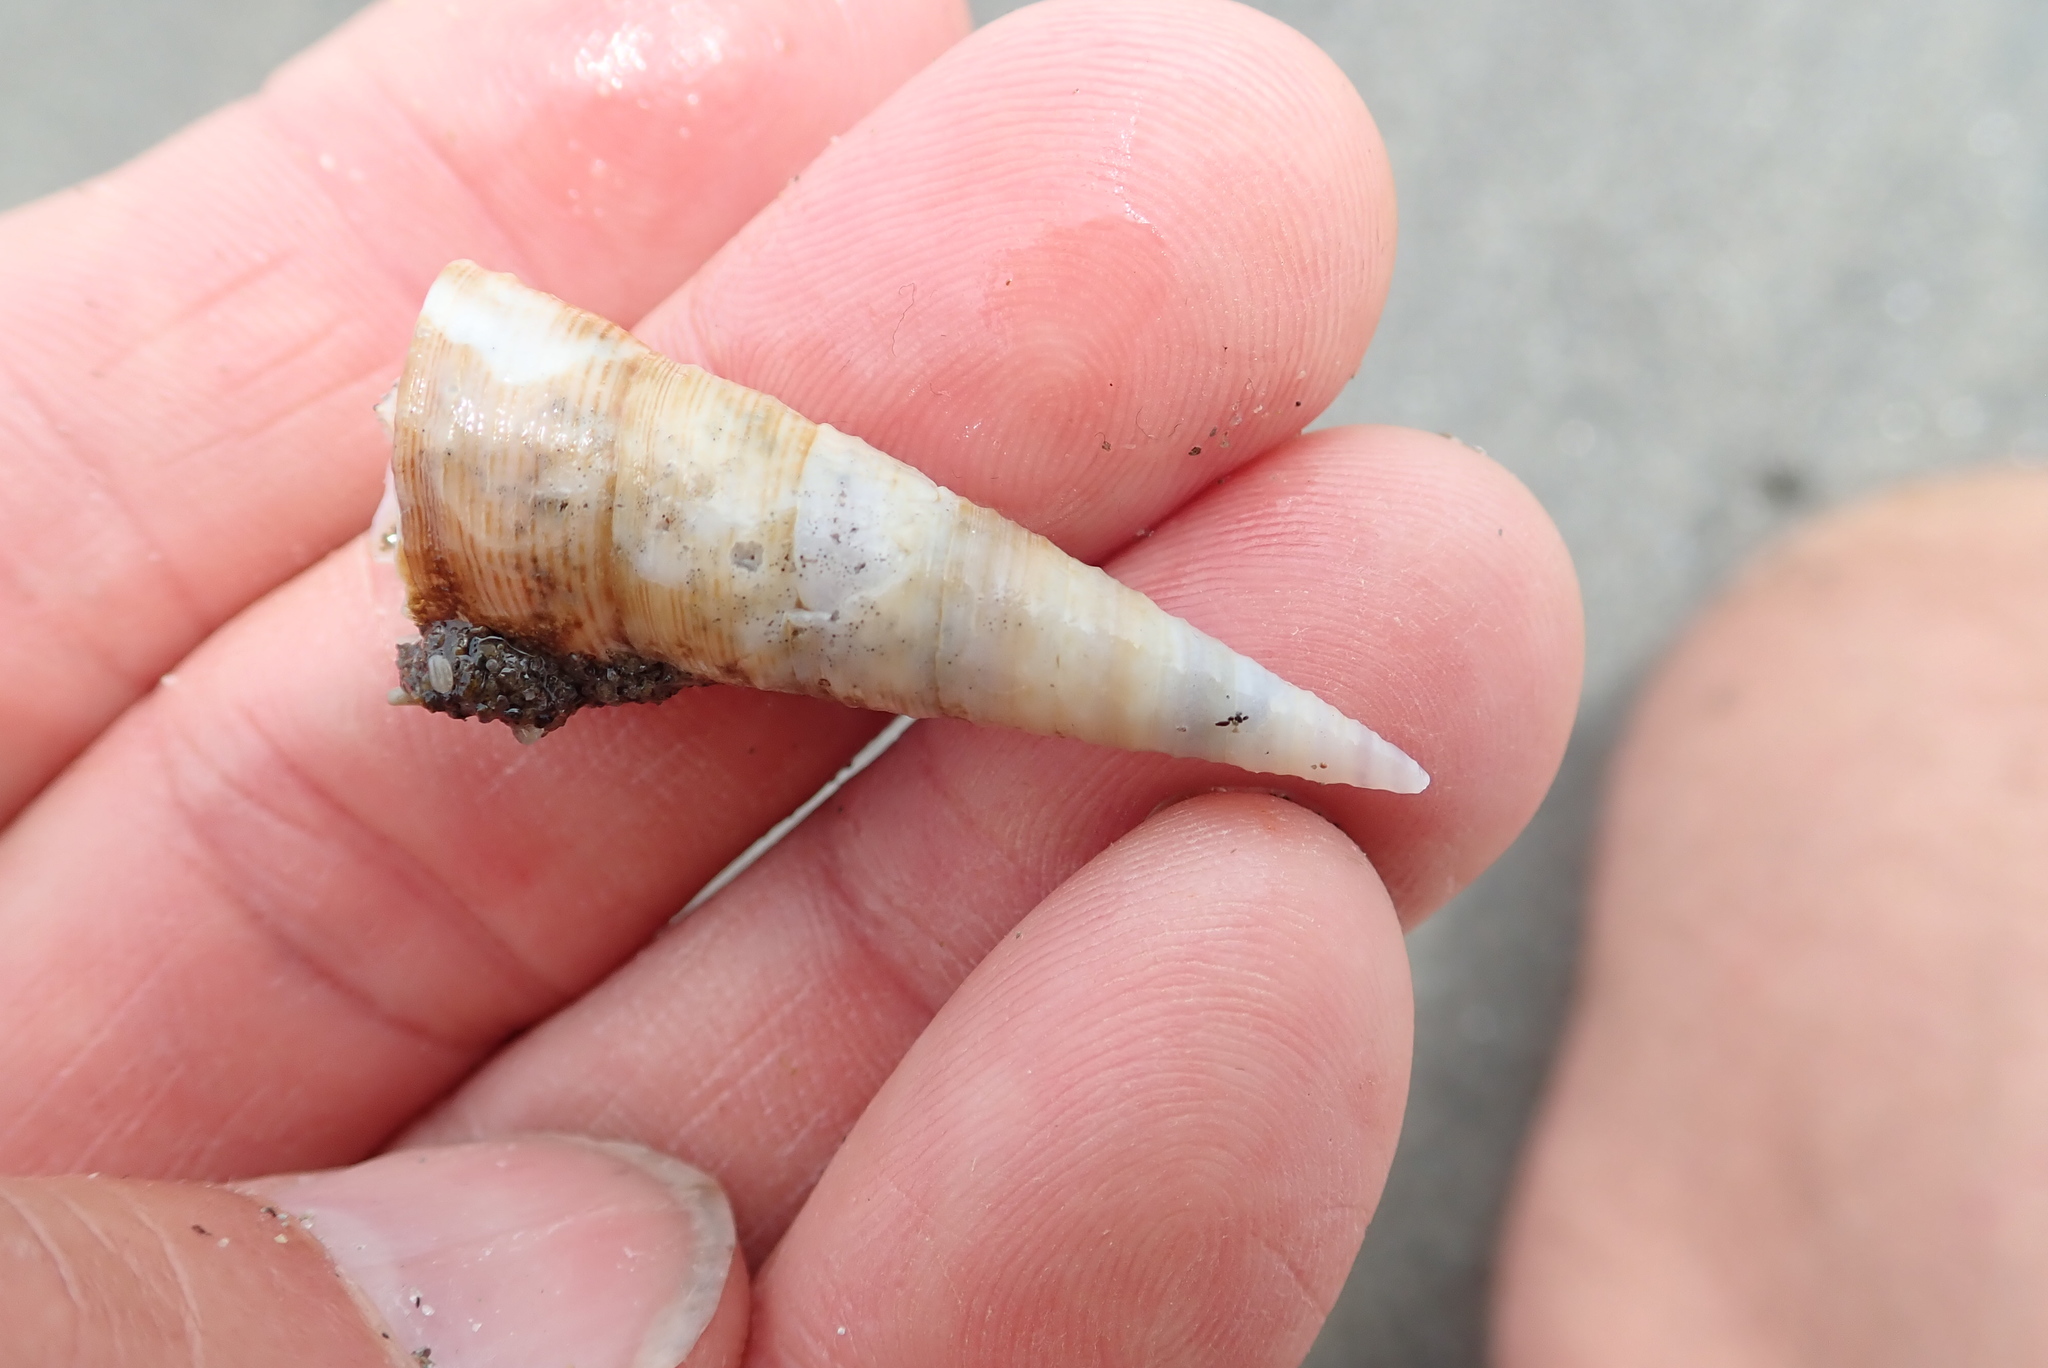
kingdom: Animalia
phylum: Mollusca
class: Gastropoda
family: Turritellidae
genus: Maoricolpus
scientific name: Maoricolpus roseus
